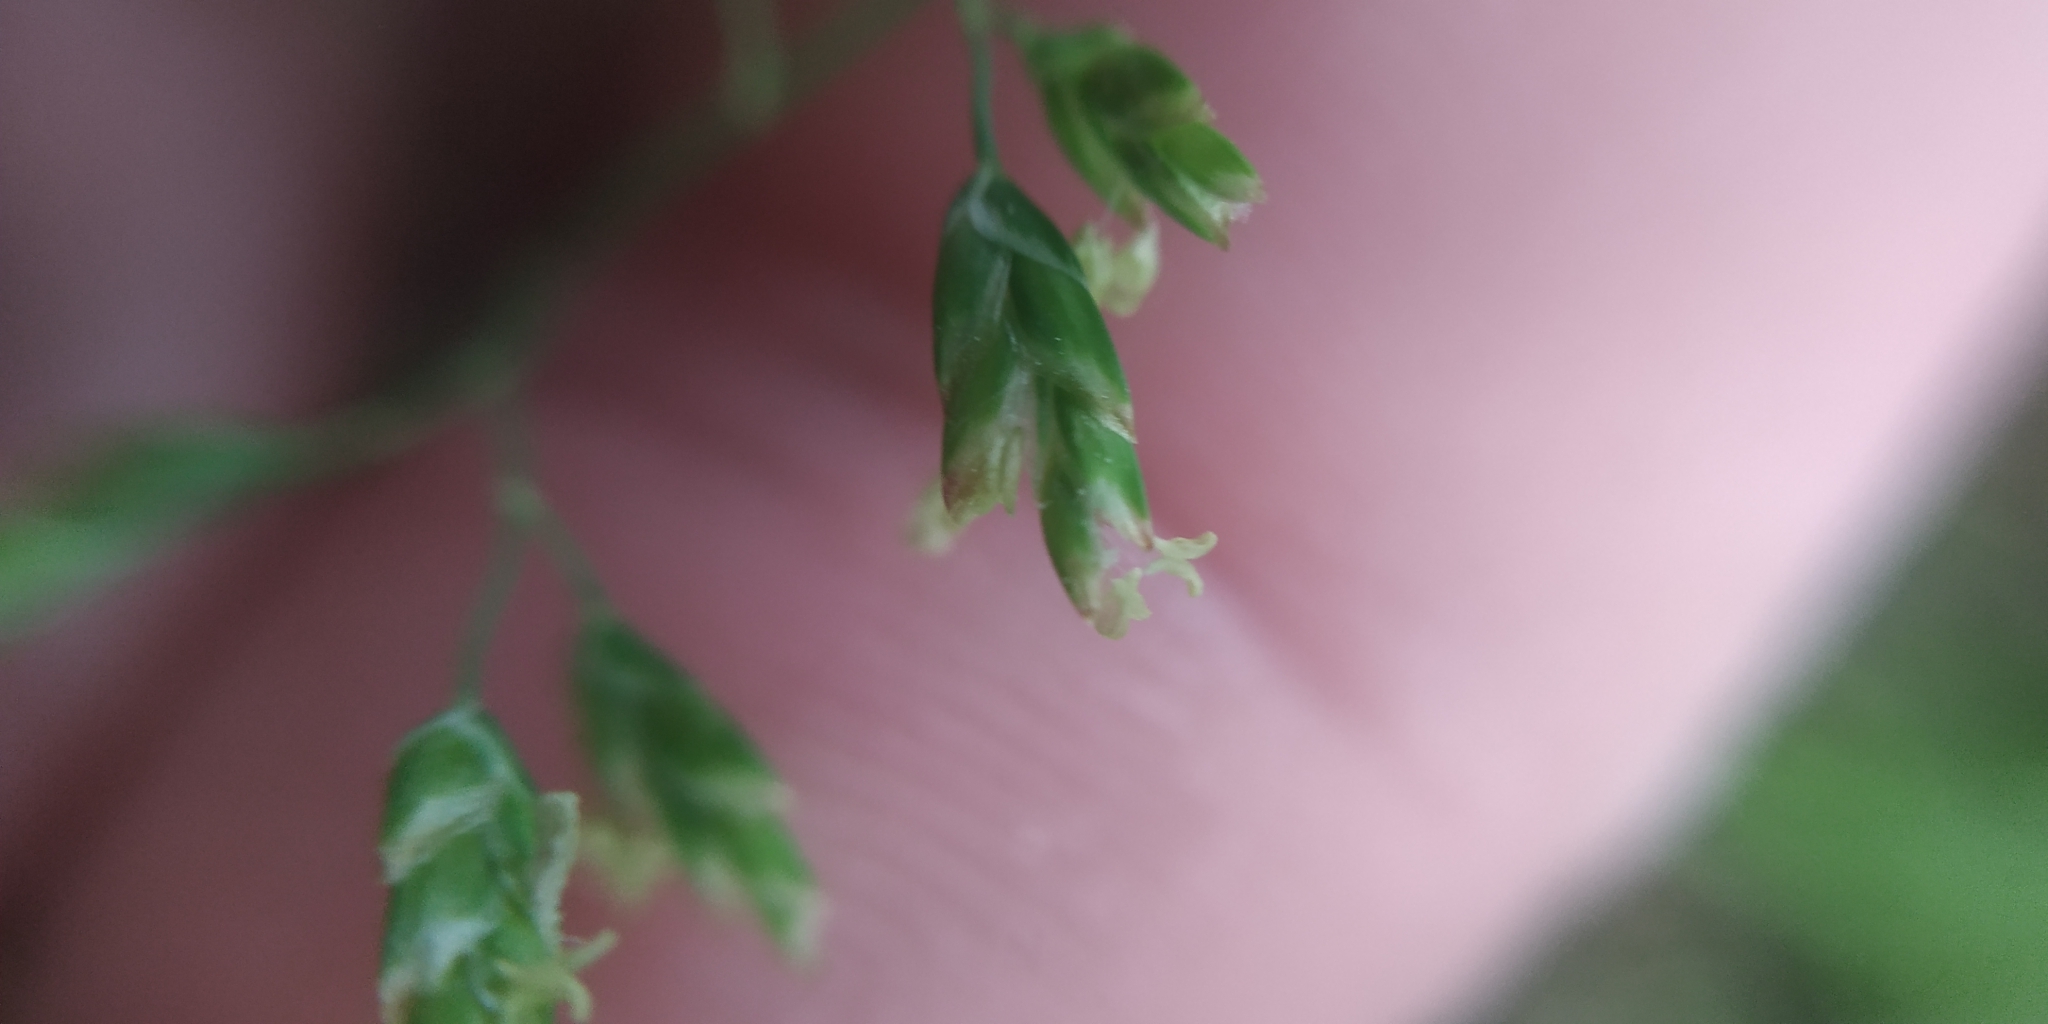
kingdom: Plantae
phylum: Tracheophyta
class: Liliopsida
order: Poales
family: Poaceae
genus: Poa
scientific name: Poa annua
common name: Annual bluegrass
